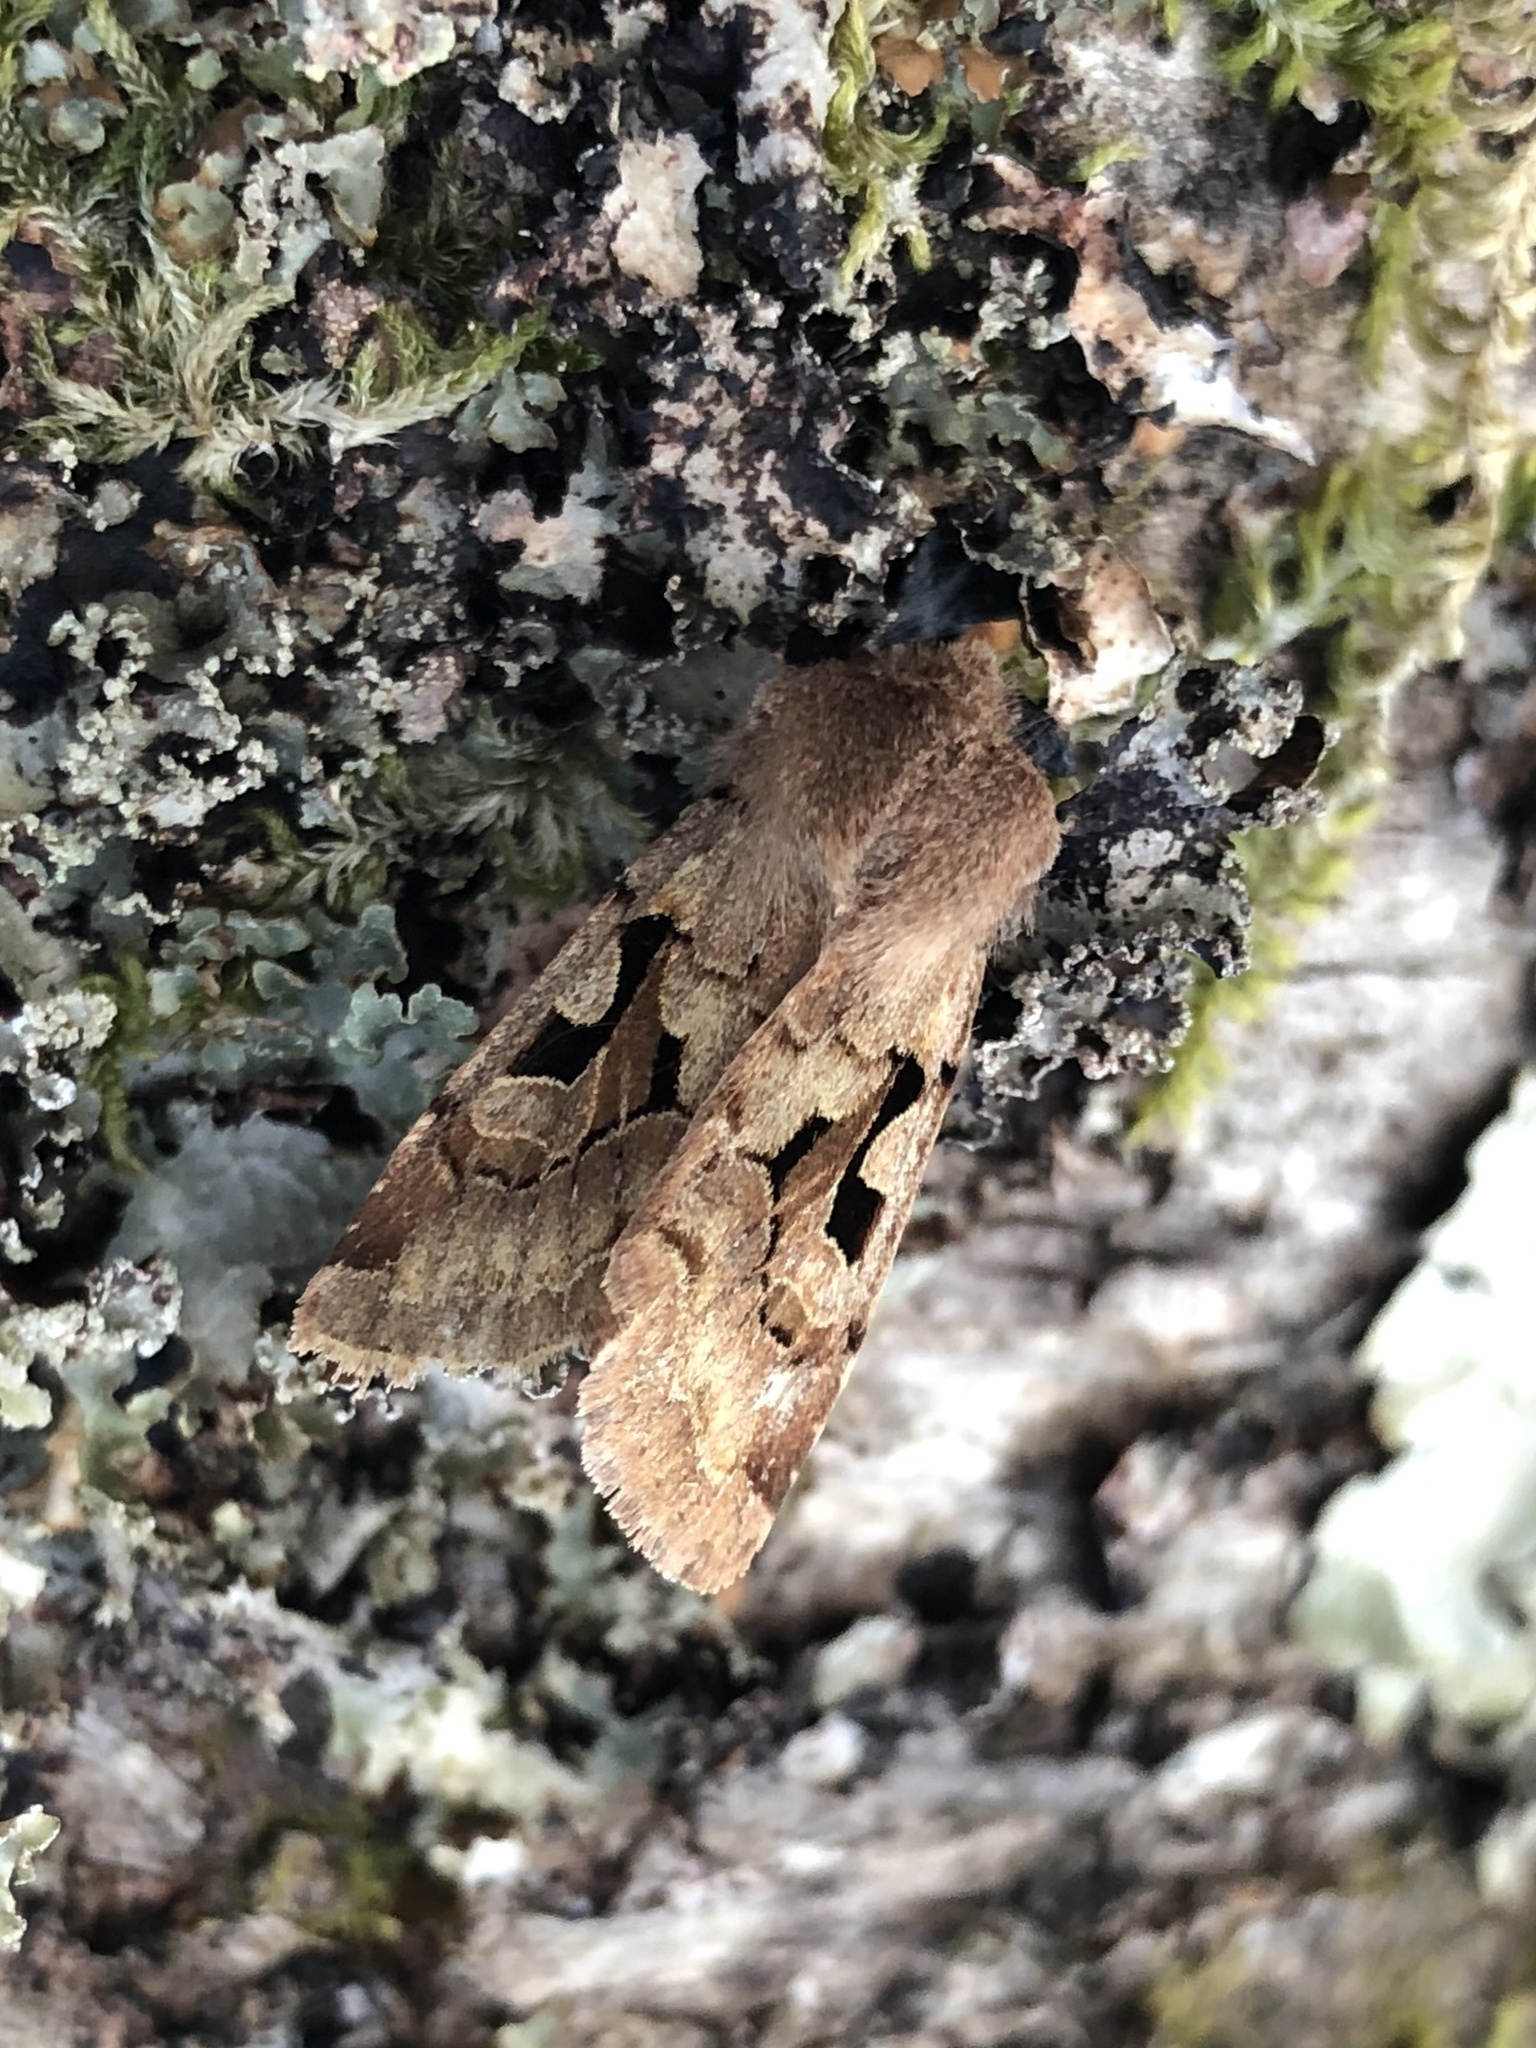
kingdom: Animalia
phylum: Arthropoda
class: Insecta
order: Lepidoptera
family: Noctuidae
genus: Orthosia
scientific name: Orthosia gothica
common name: Hebrew character
